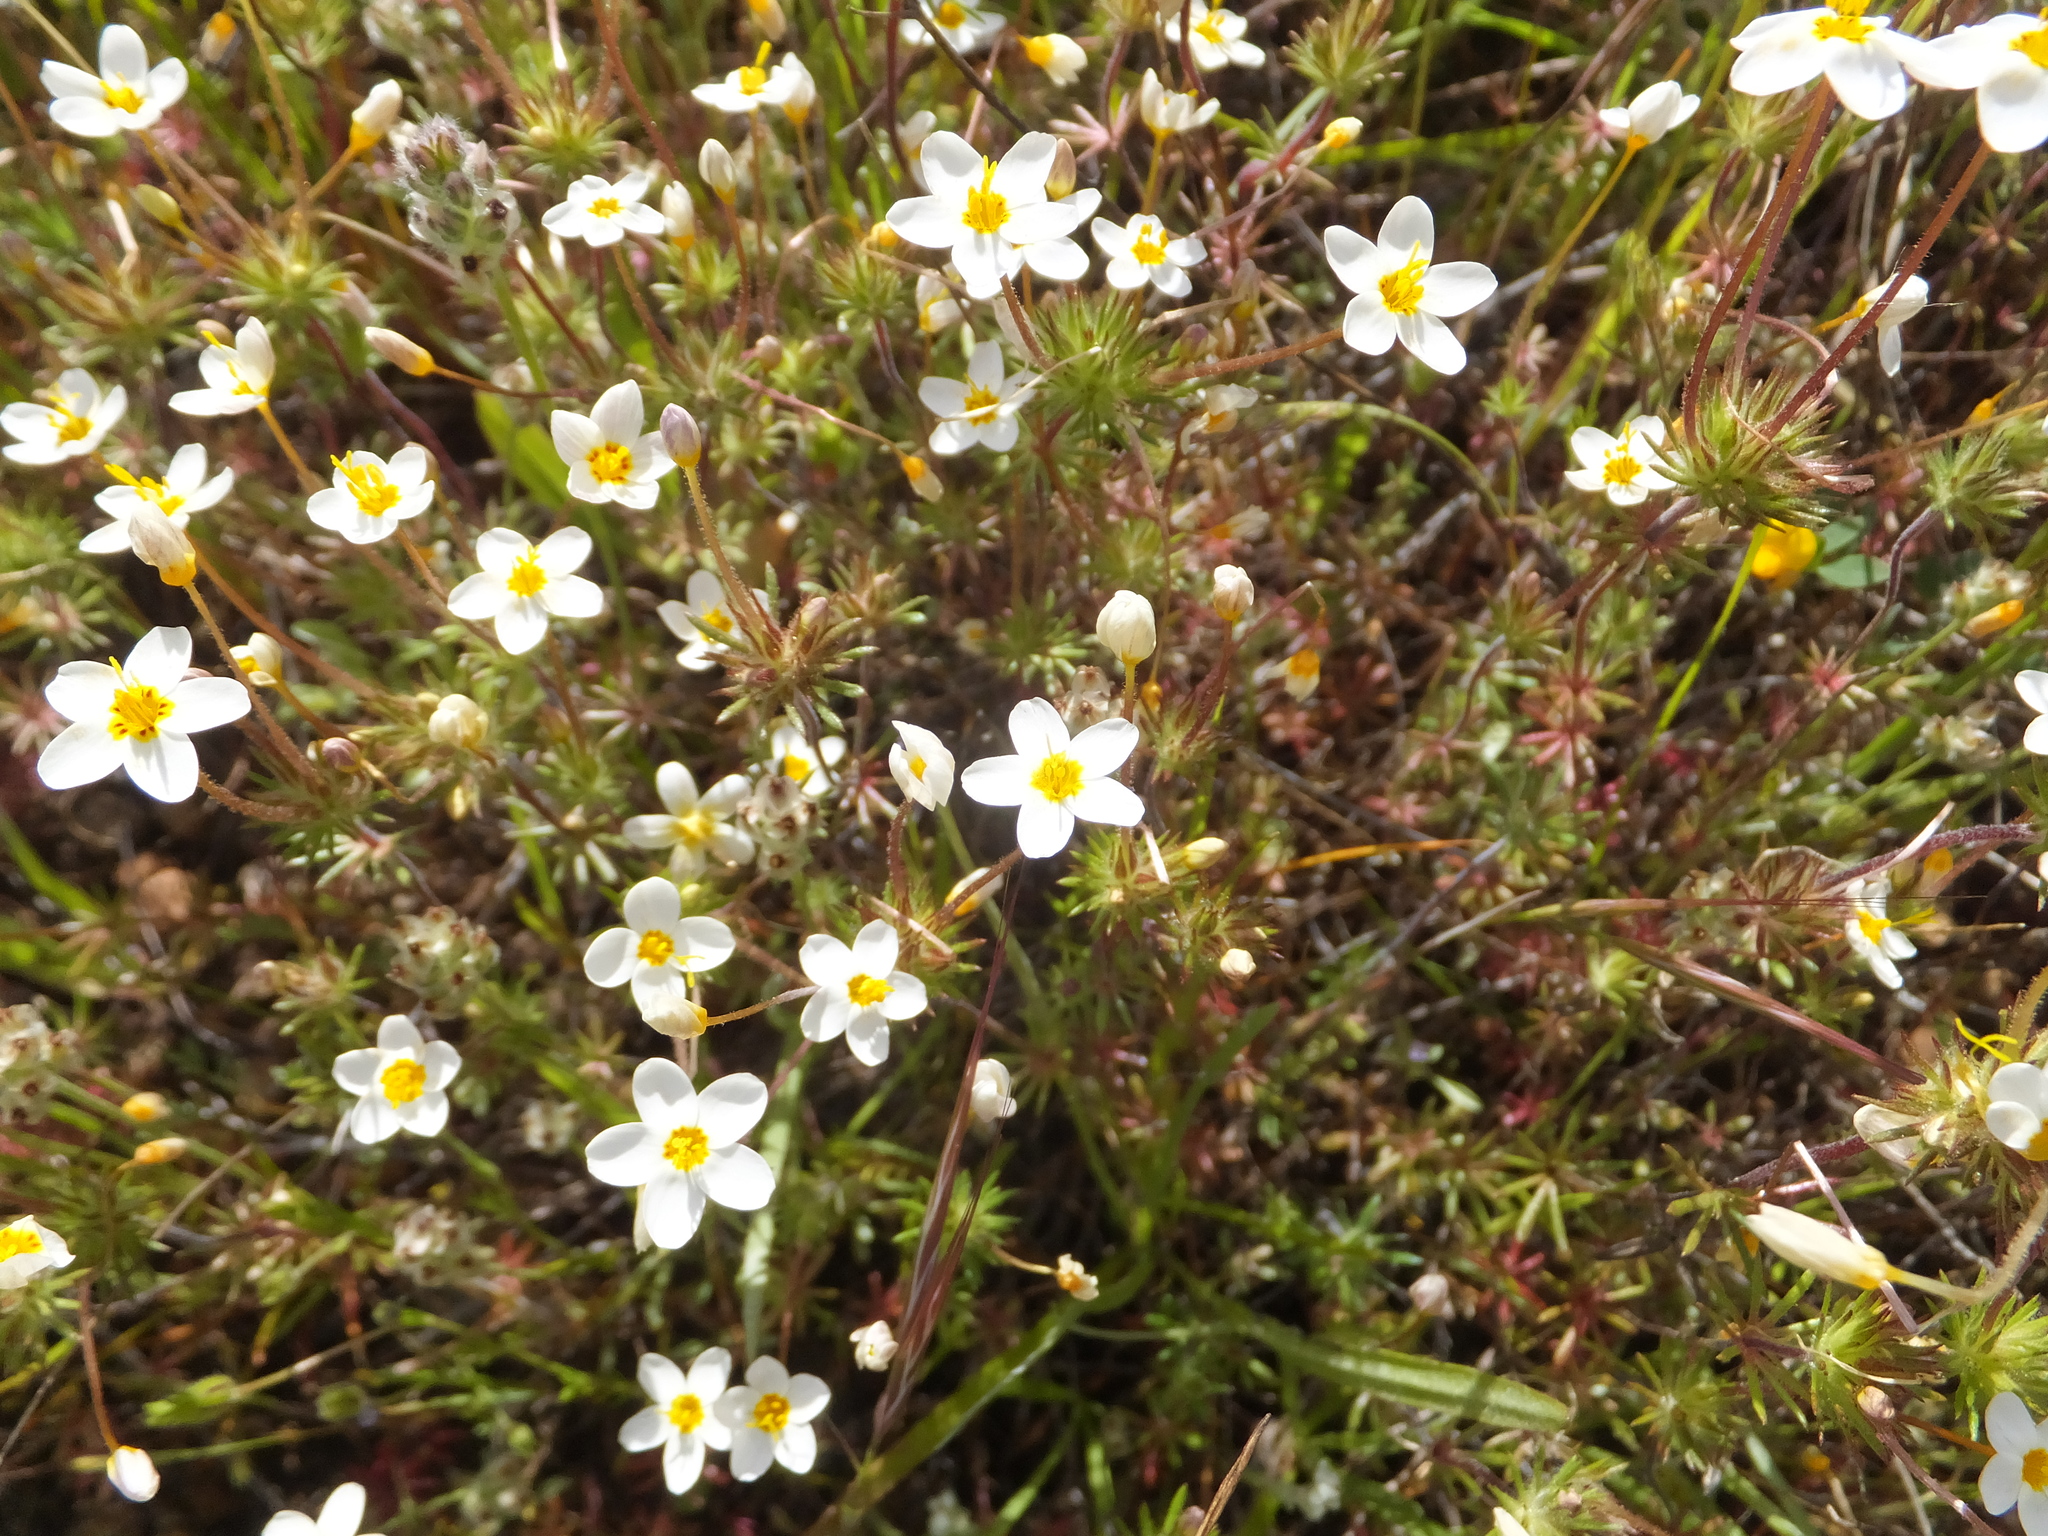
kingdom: Plantae
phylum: Tracheophyta
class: Magnoliopsida
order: Ericales
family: Polemoniaceae
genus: Leptosiphon
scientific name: Leptosiphon parviflorus
